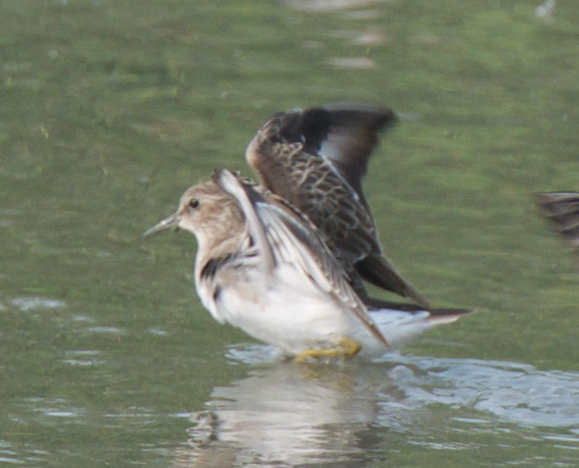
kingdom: Animalia
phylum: Chordata
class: Aves
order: Charadriiformes
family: Scolopacidae
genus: Calidris
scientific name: Calidris minutilla
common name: Least sandpiper
